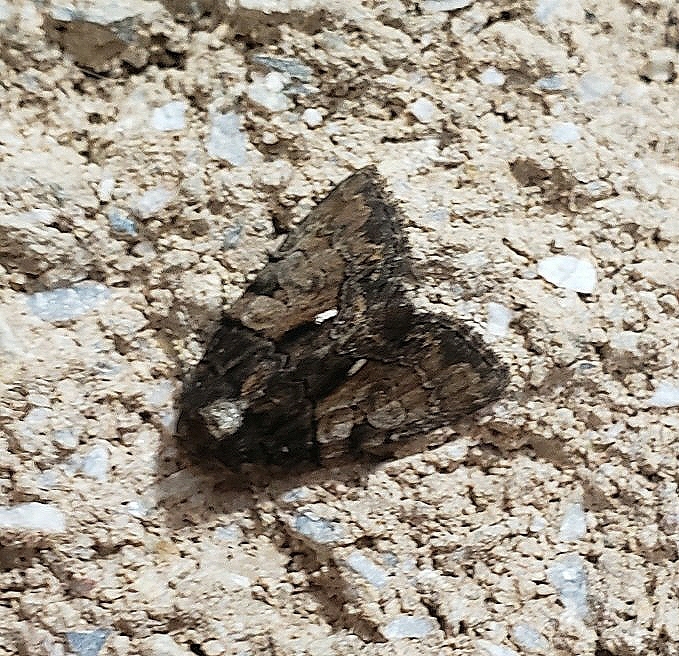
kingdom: Animalia
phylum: Arthropoda
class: Insecta
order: Lepidoptera
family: Noctuidae
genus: Chytonix
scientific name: Chytonix palliatricula
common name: Cloaked marvel
